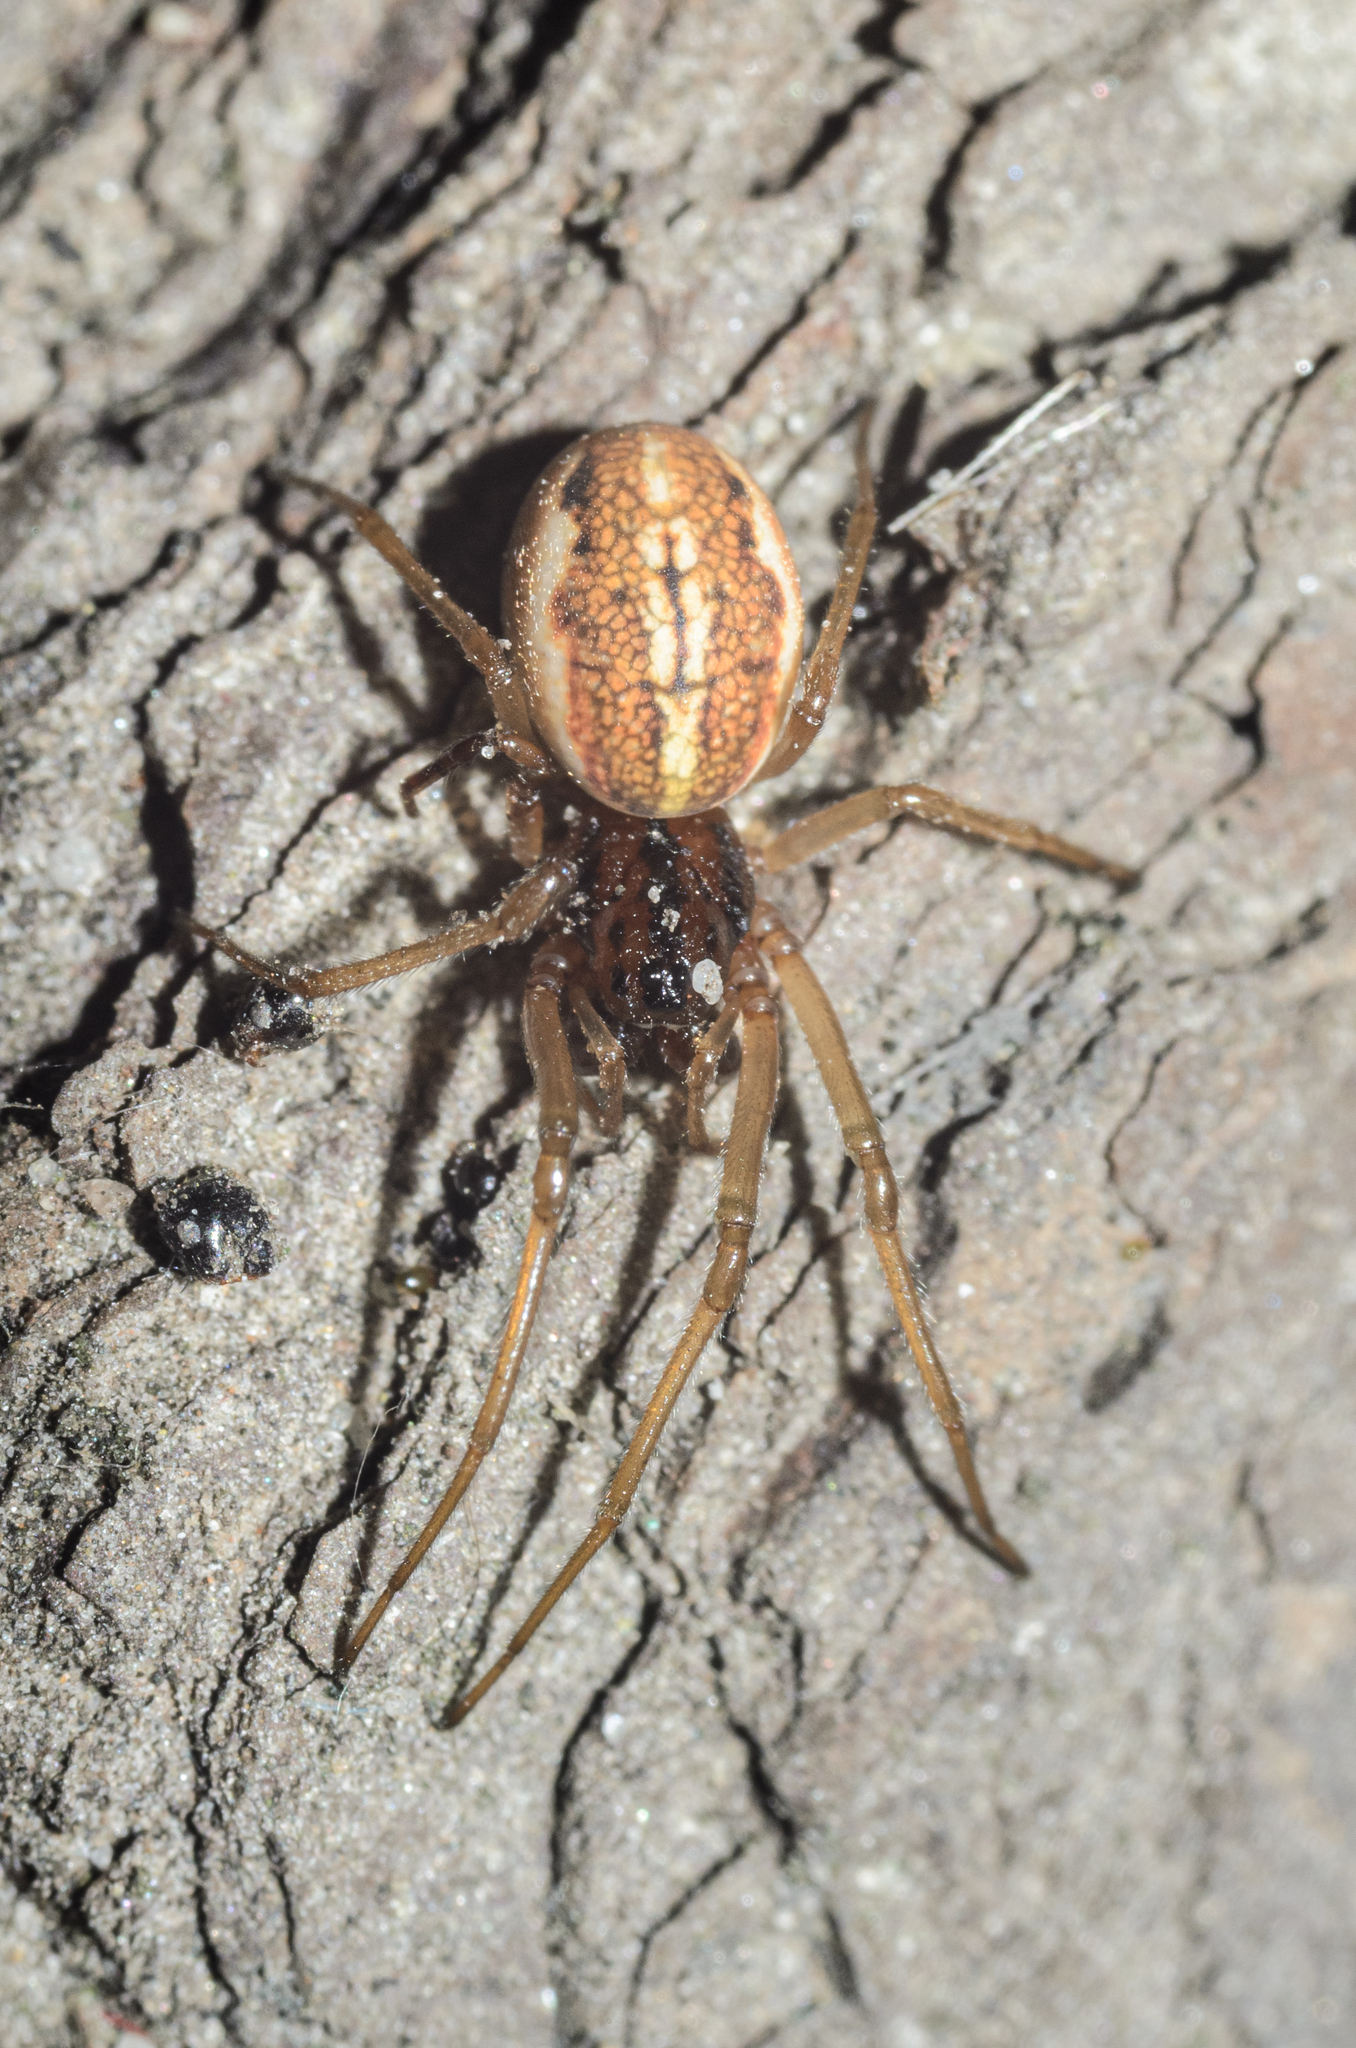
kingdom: Animalia
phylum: Arthropoda
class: Arachnida
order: Araneae
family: Tetragnathidae
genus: Pachygnatha
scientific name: Pachygnatha clercki
